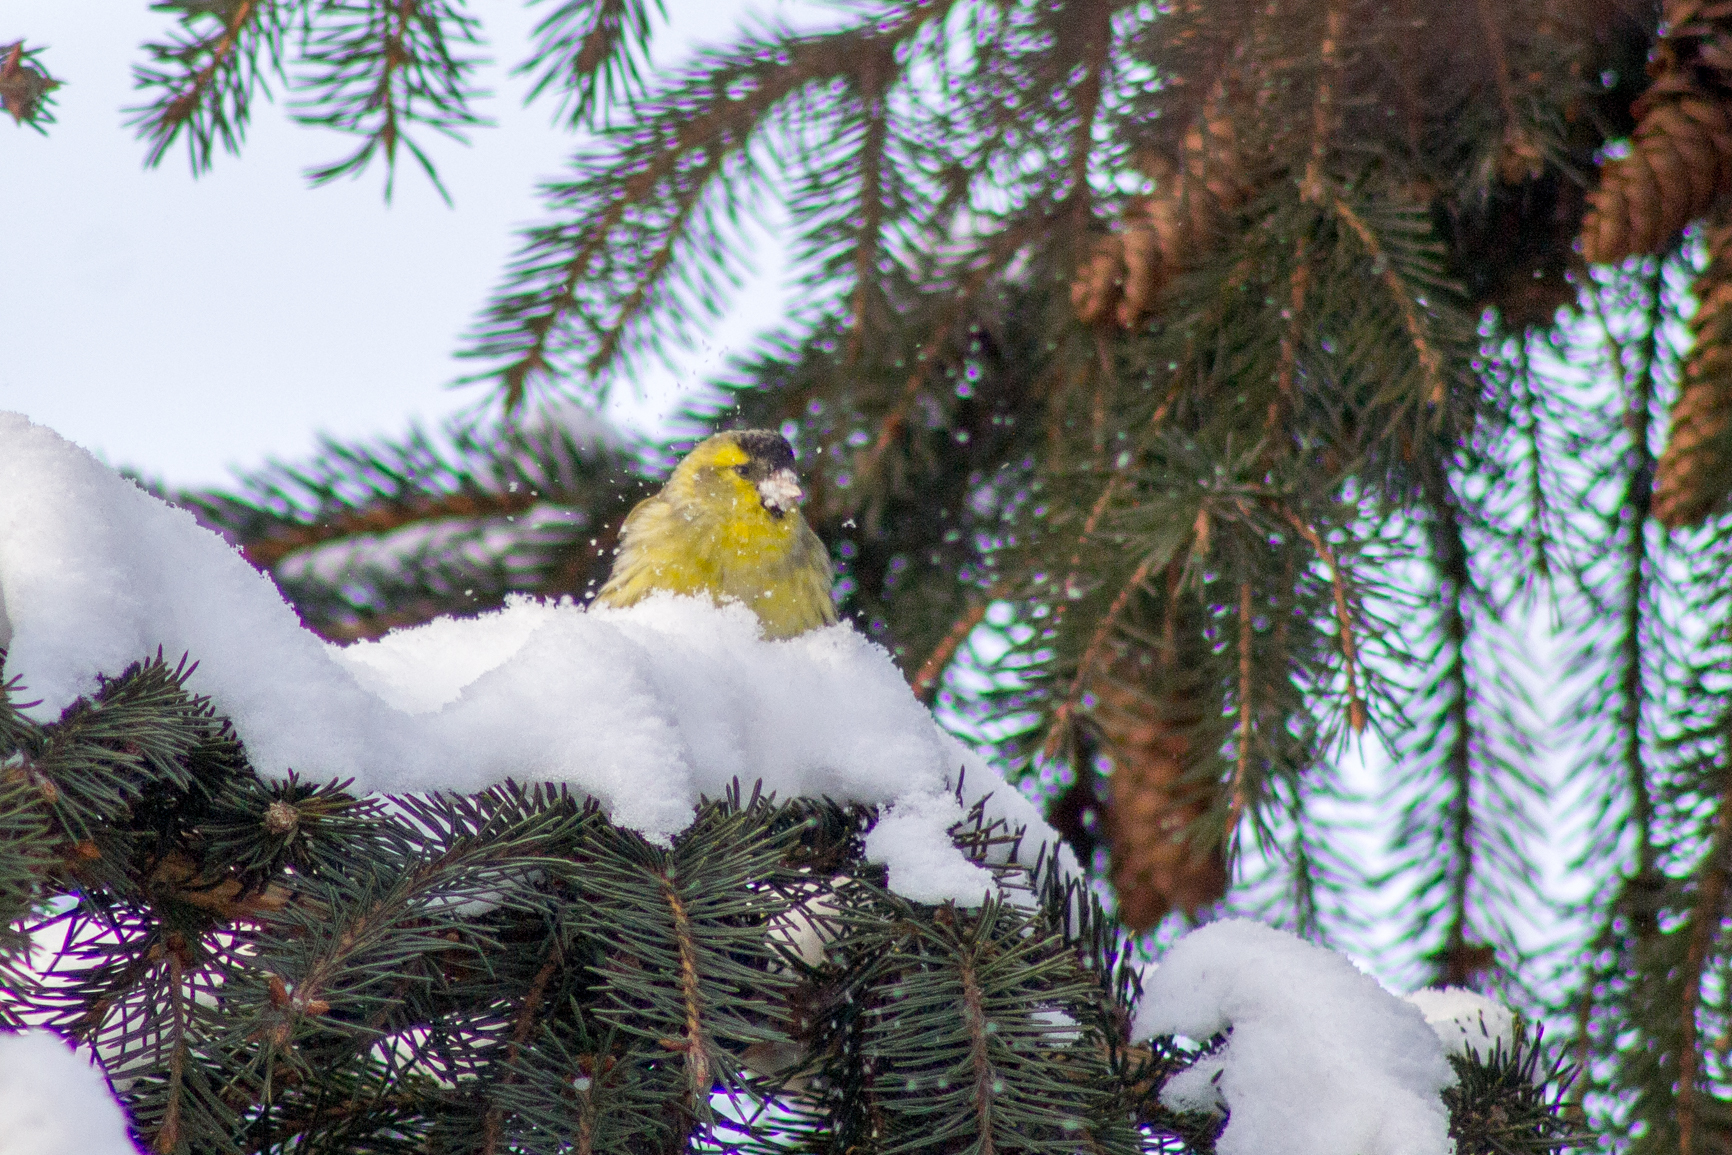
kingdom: Animalia
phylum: Chordata
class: Aves
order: Passeriformes
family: Fringillidae
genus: Spinus
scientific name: Spinus spinus
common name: Eurasian siskin
